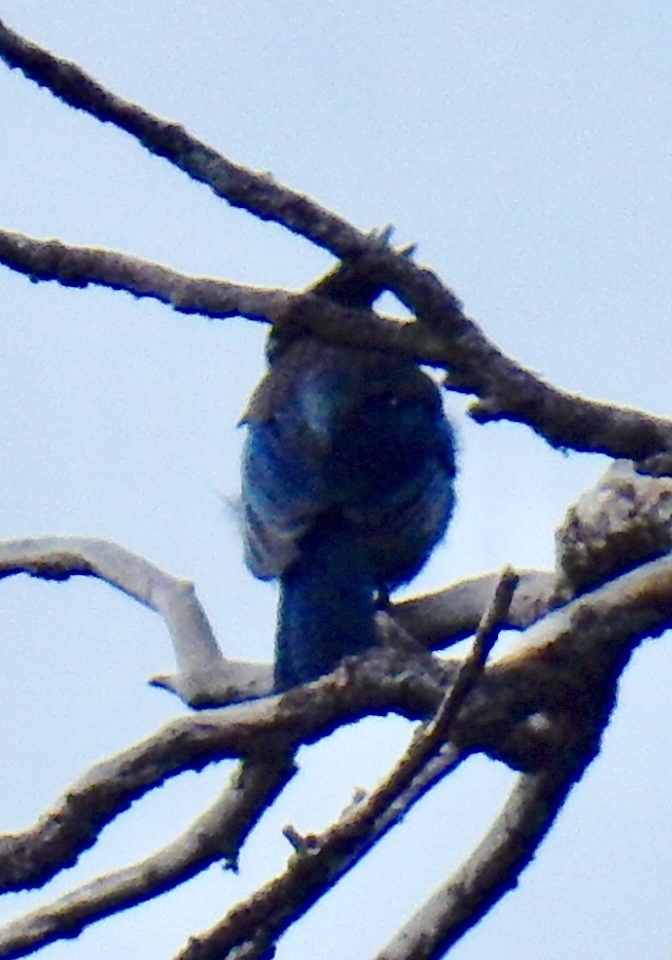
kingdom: Animalia
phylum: Chordata
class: Aves
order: Passeriformes
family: Corvidae
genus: Cyanocitta
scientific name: Cyanocitta stelleri
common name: Steller's jay
